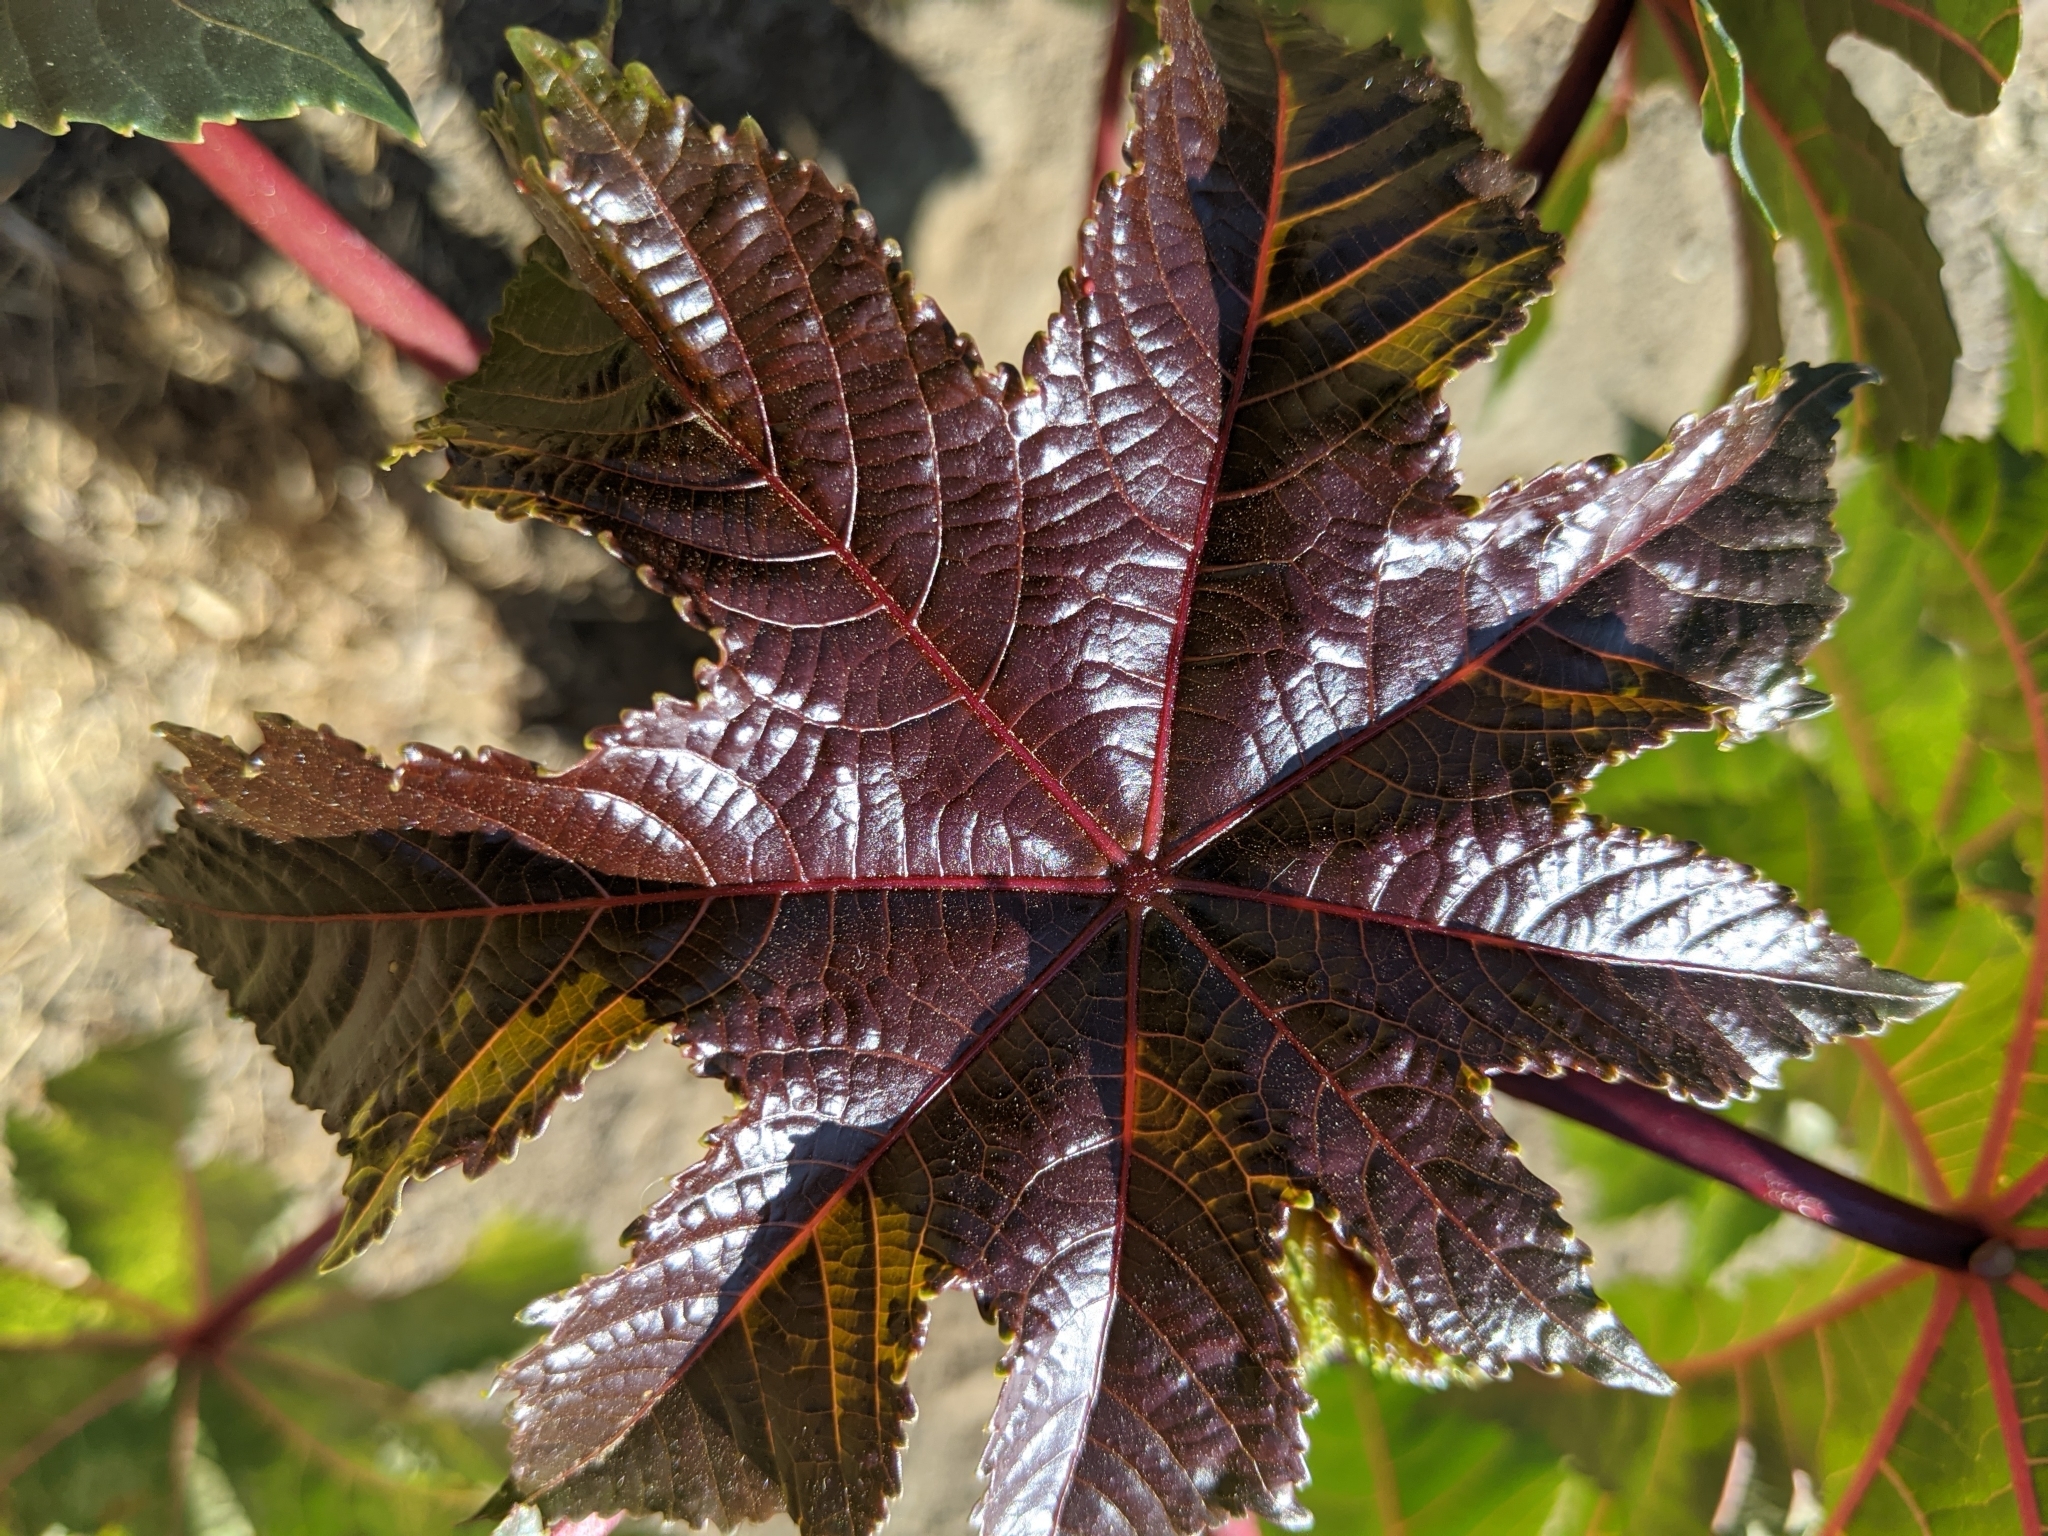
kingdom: Plantae
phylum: Tracheophyta
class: Magnoliopsida
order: Malpighiales
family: Euphorbiaceae
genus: Ricinus
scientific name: Ricinus communis
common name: Castor-oil-plant
